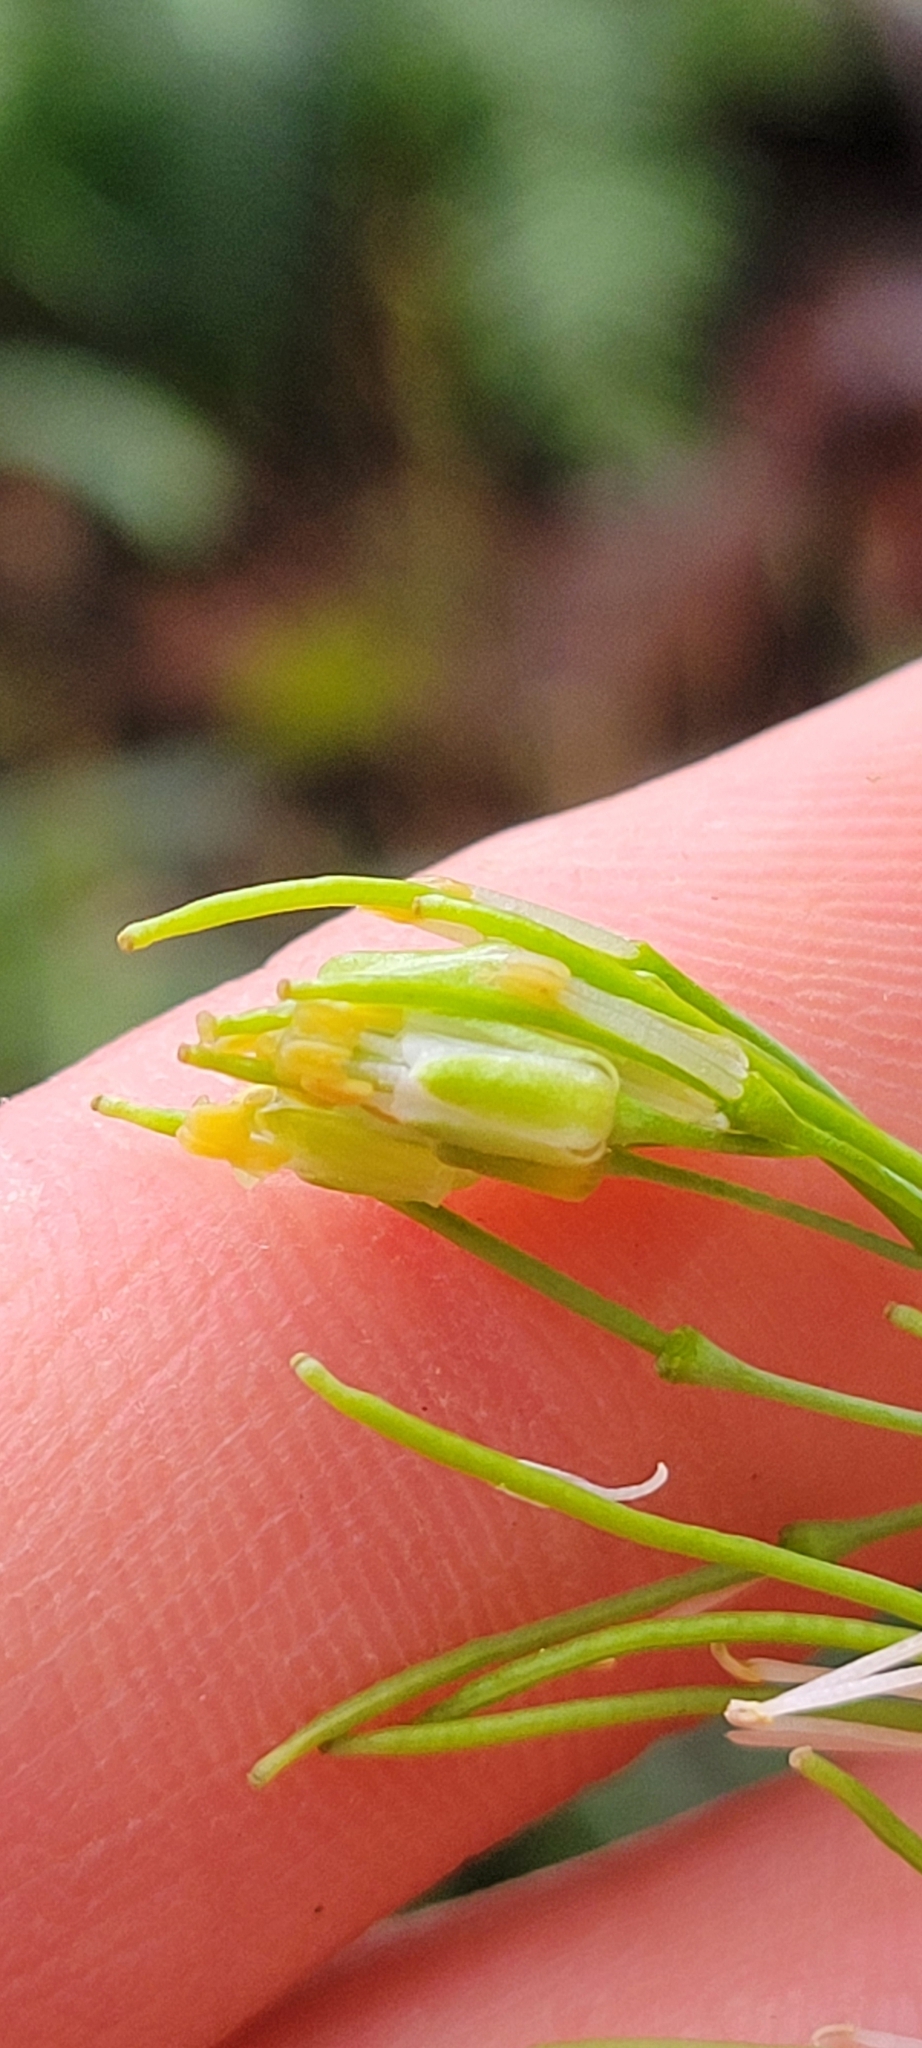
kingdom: Plantae
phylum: Tracheophyta
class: Magnoliopsida
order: Brassicales
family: Brassicaceae
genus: Borodinia
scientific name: Borodinia laevigata
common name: Smooth rockcress
